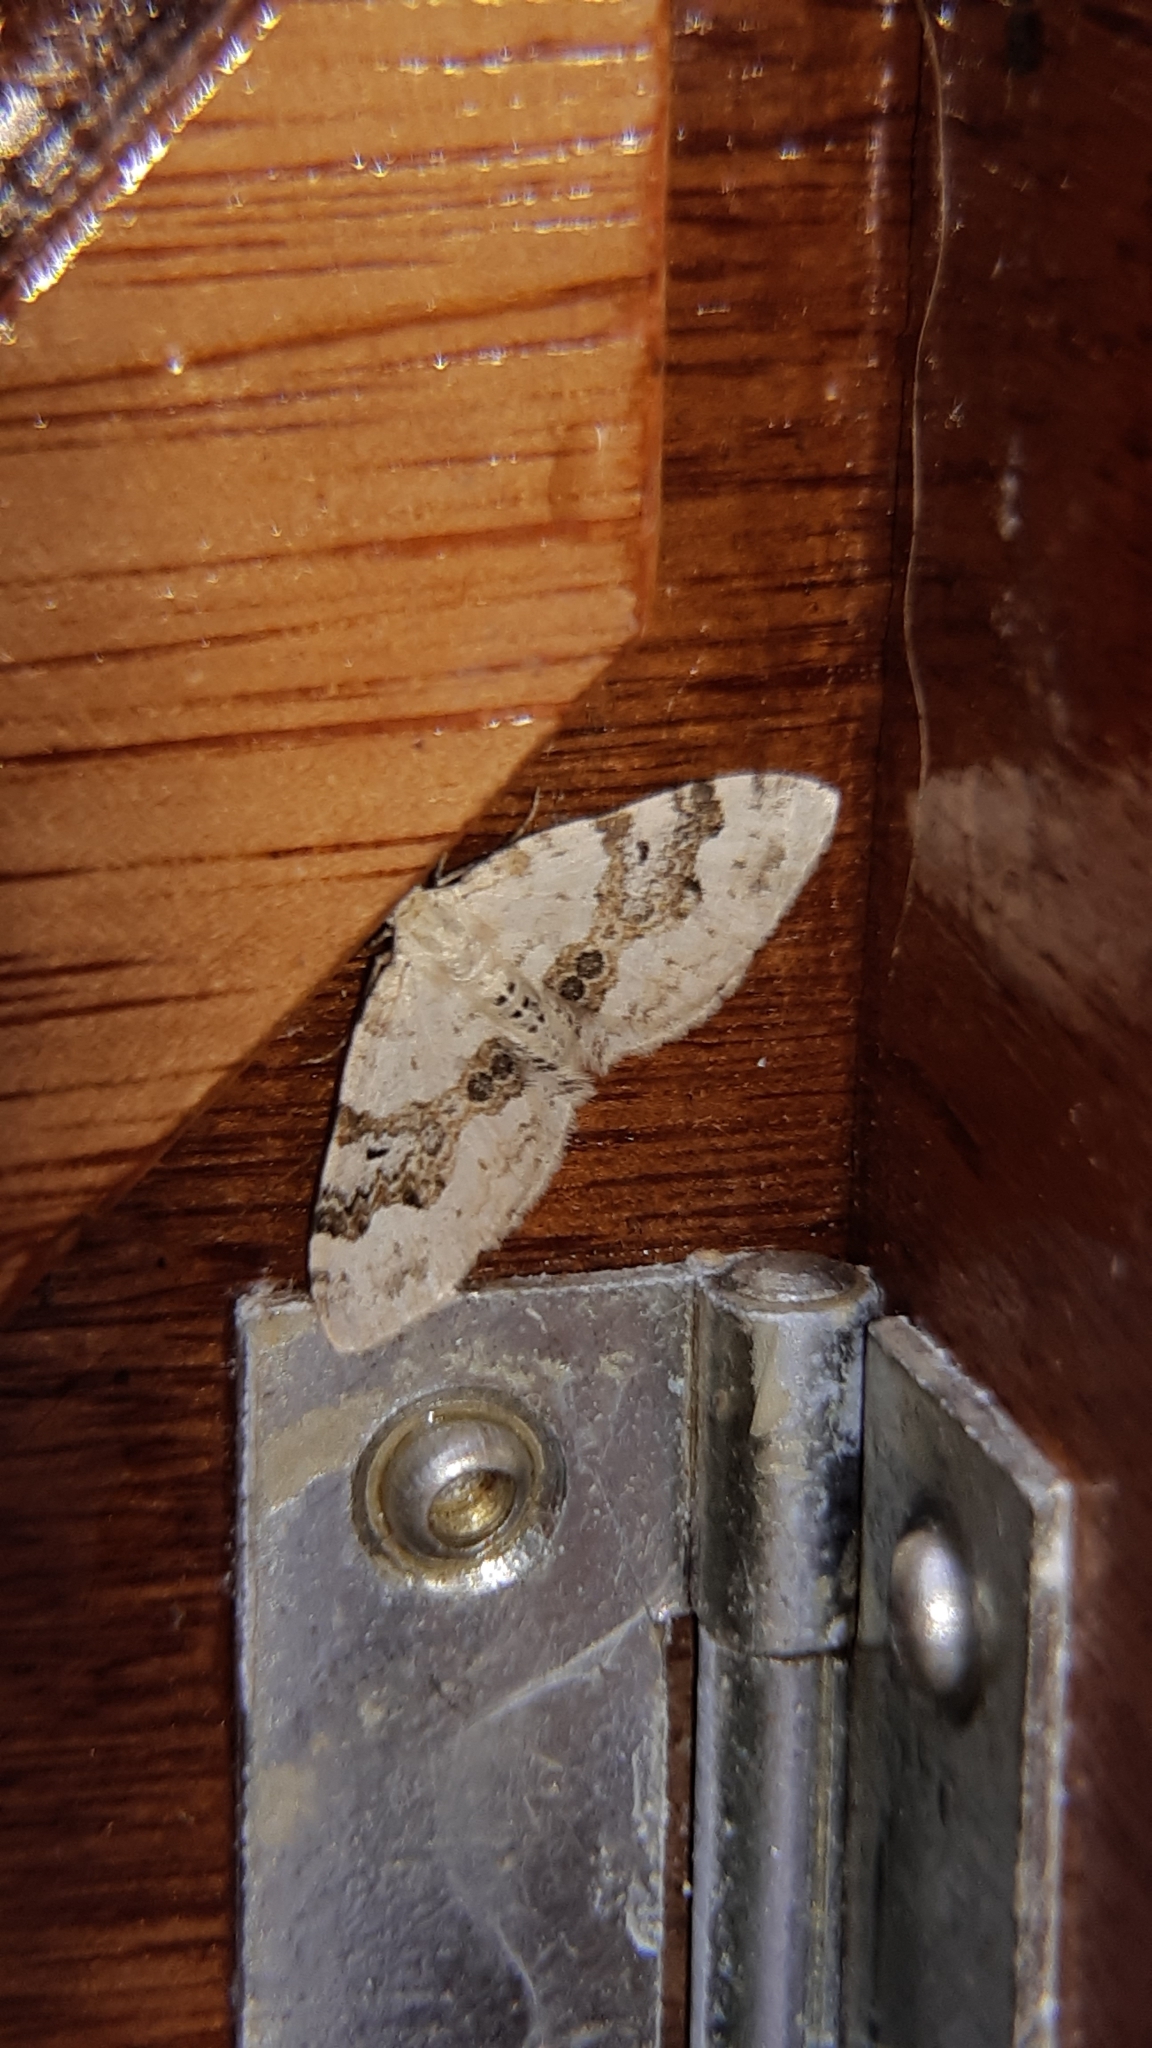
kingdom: Animalia
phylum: Arthropoda
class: Insecta
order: Lepidoptera
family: Geometridae
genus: Xanthorhoe
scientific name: Xanthorhoe montanata
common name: Silver-ground carpet
